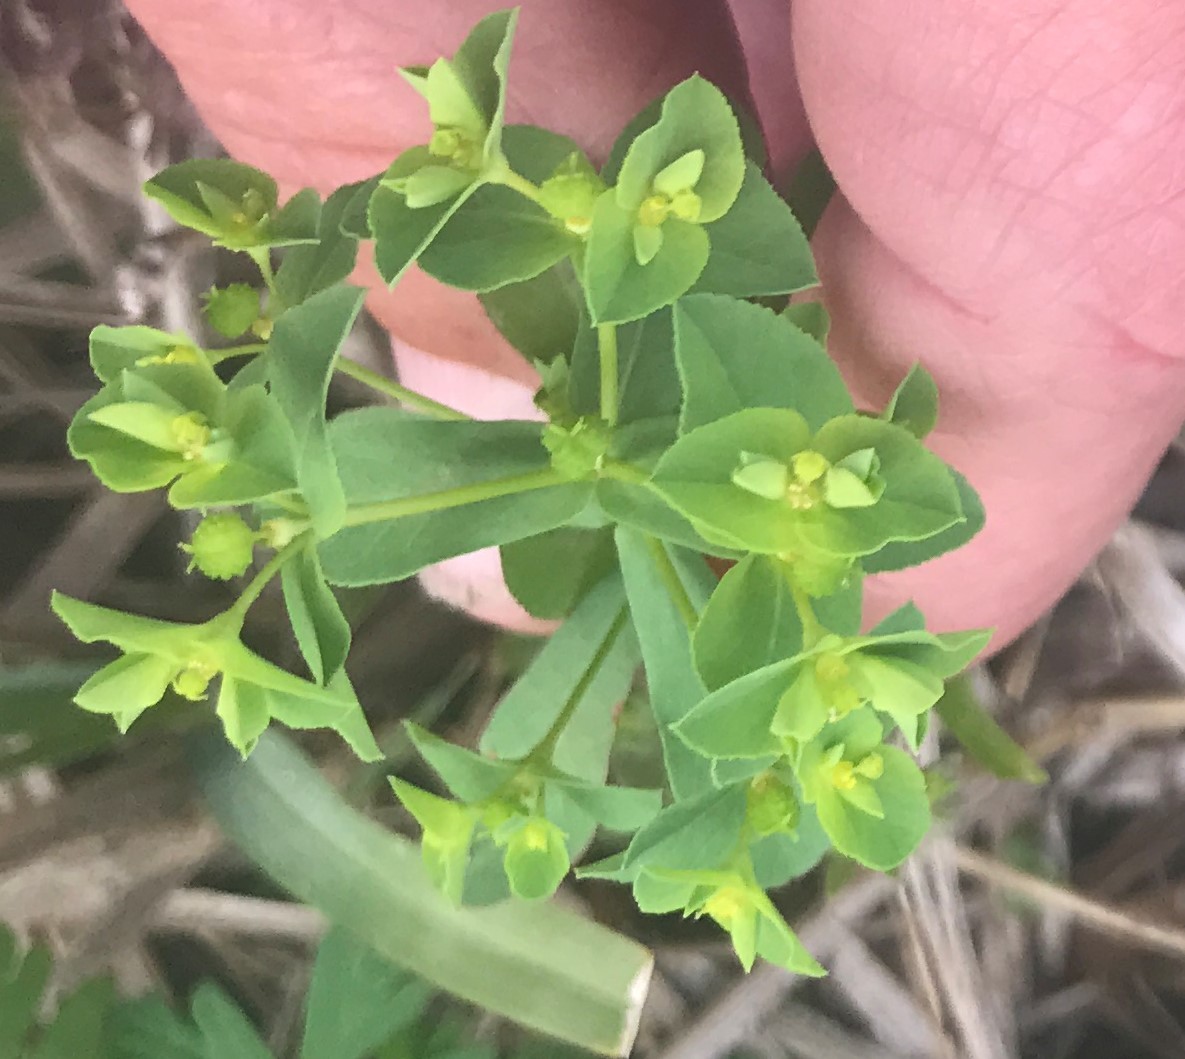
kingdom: Plantae
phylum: Tracheophyta
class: Magnoliopsida
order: Malpighiales
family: Euphorbiaceae
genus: Euphorbia
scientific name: Euphorbia spathulata
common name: Blunt spurge
